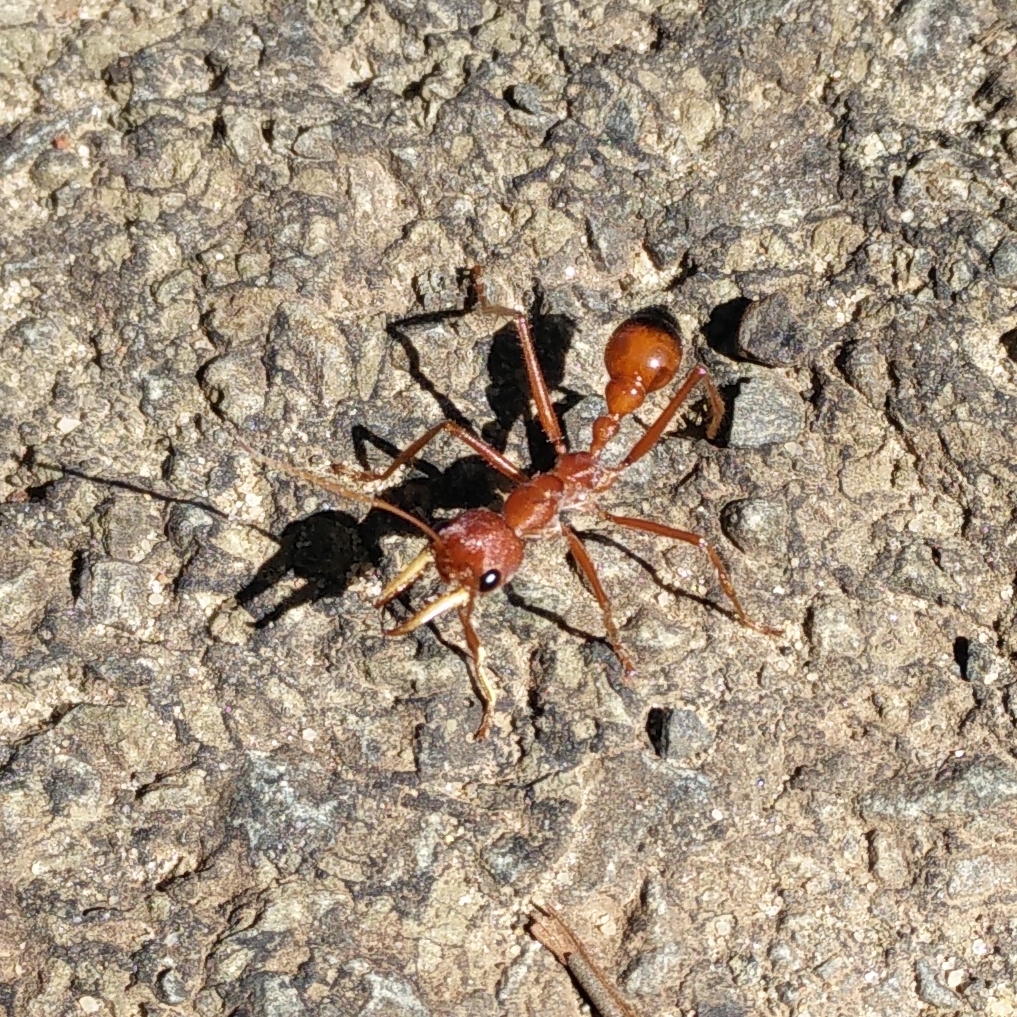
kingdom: Animalia
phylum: Arthropoda
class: Insecta
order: Hymenoptera
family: Formicidae
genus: Myrmecia
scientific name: Myrmecia gulosa
